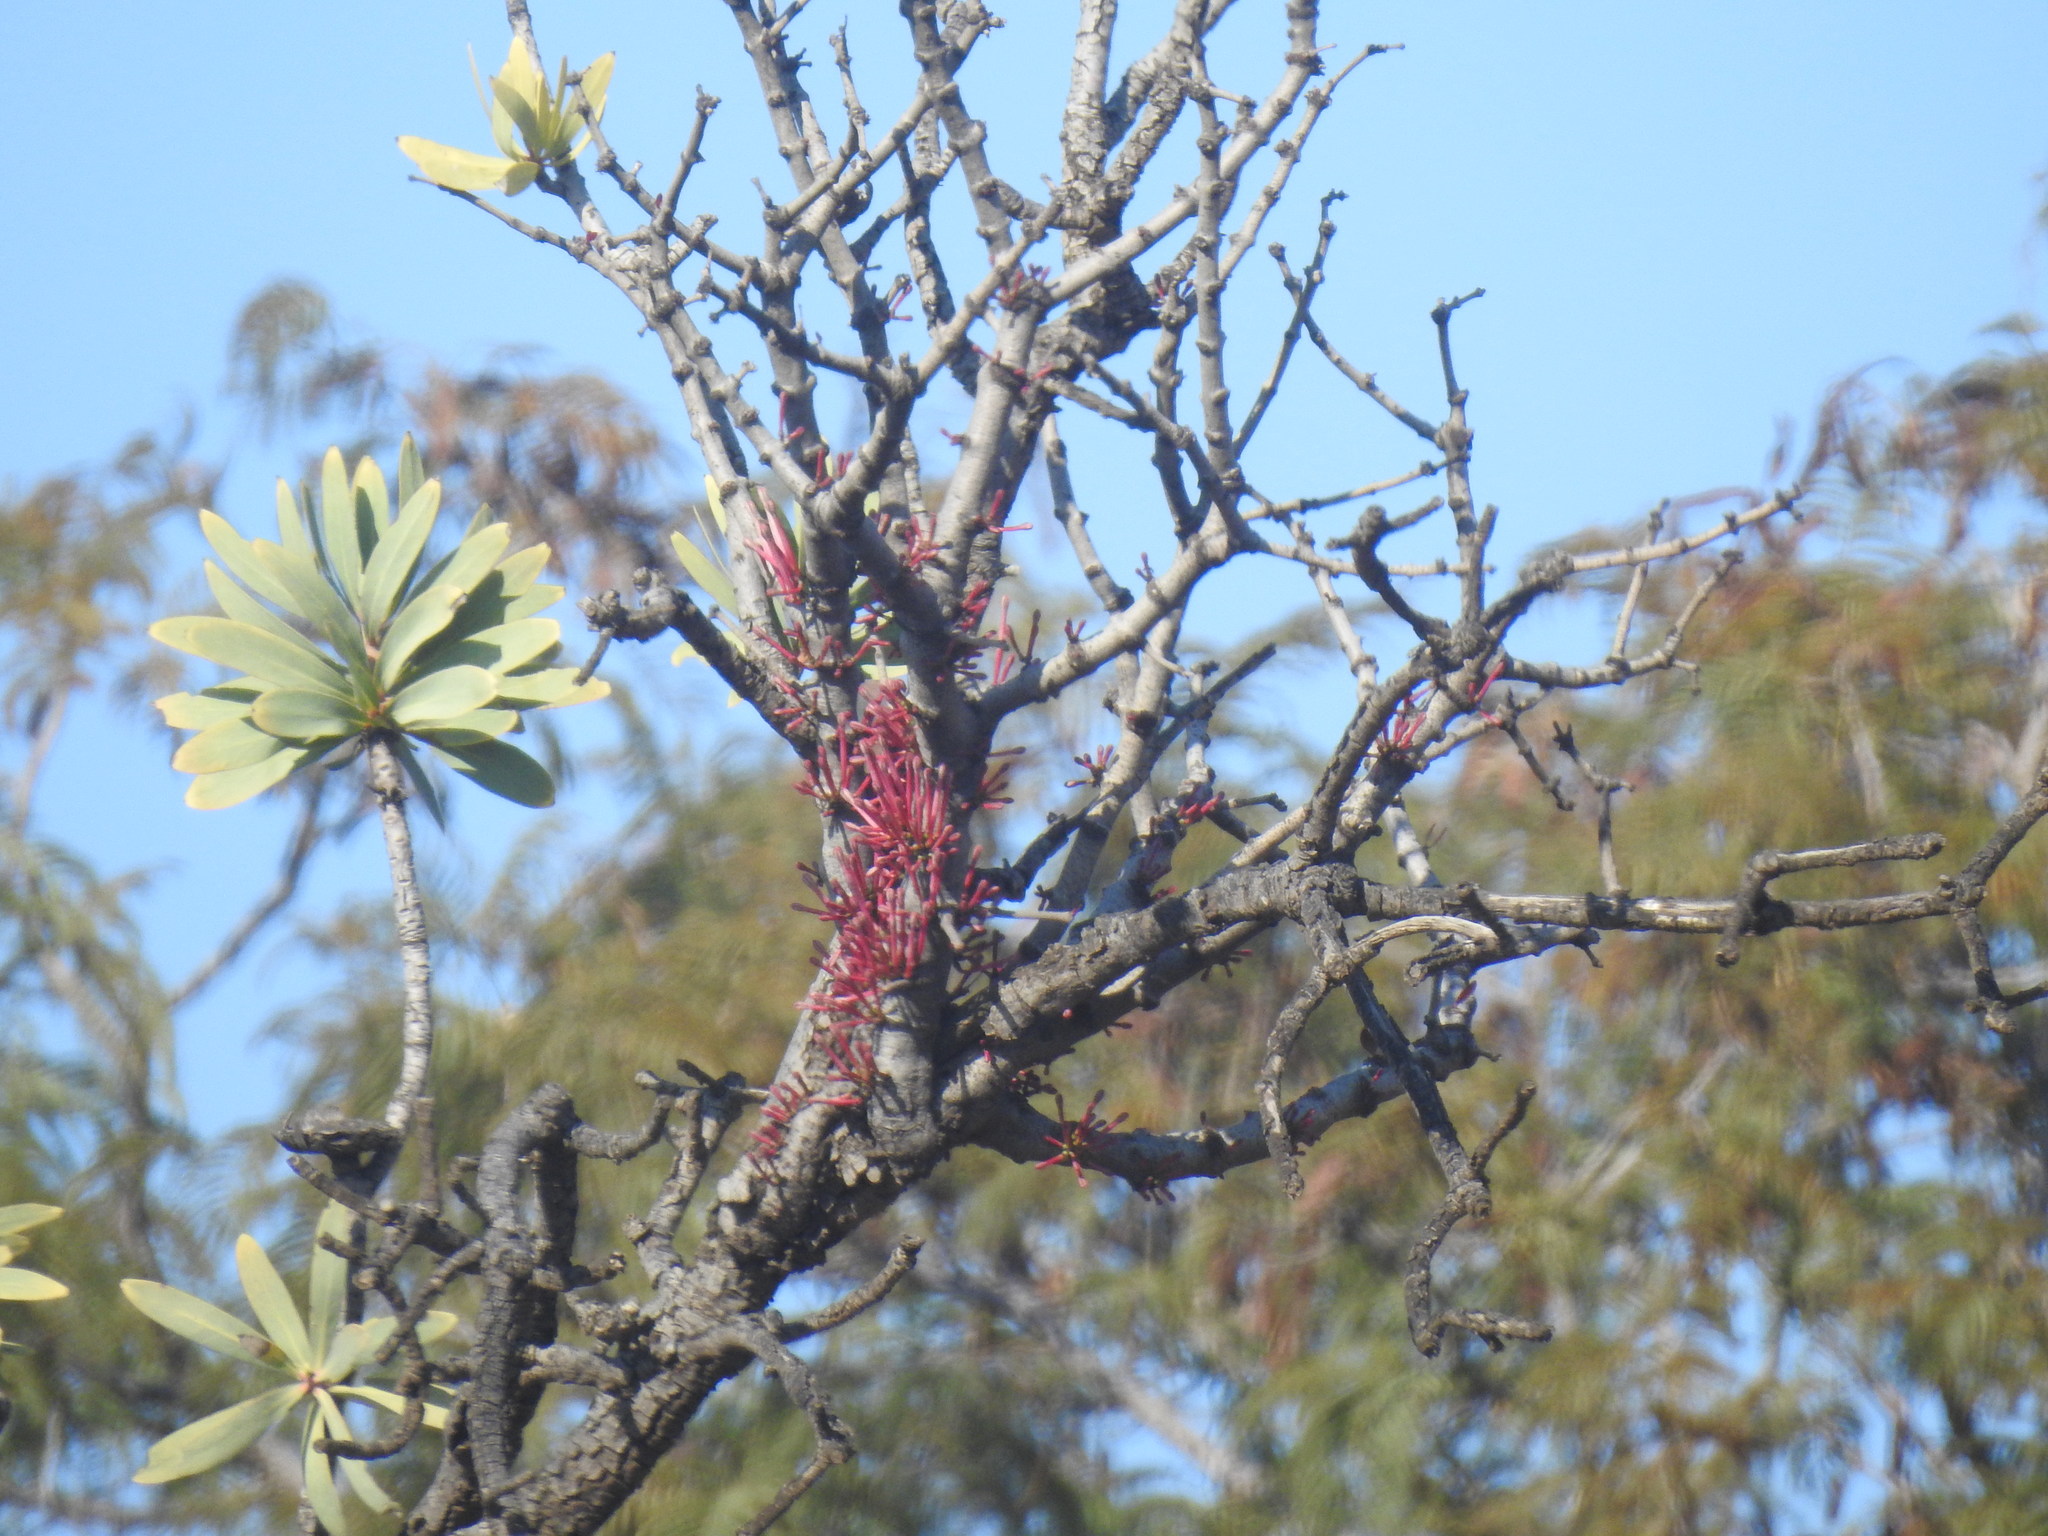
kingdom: Plantae
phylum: Tracheophyta
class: Magnoliopsida
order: Santalales
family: Loranthaceae
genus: Tapinanthus
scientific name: Tapinanthus rubromarginatus
